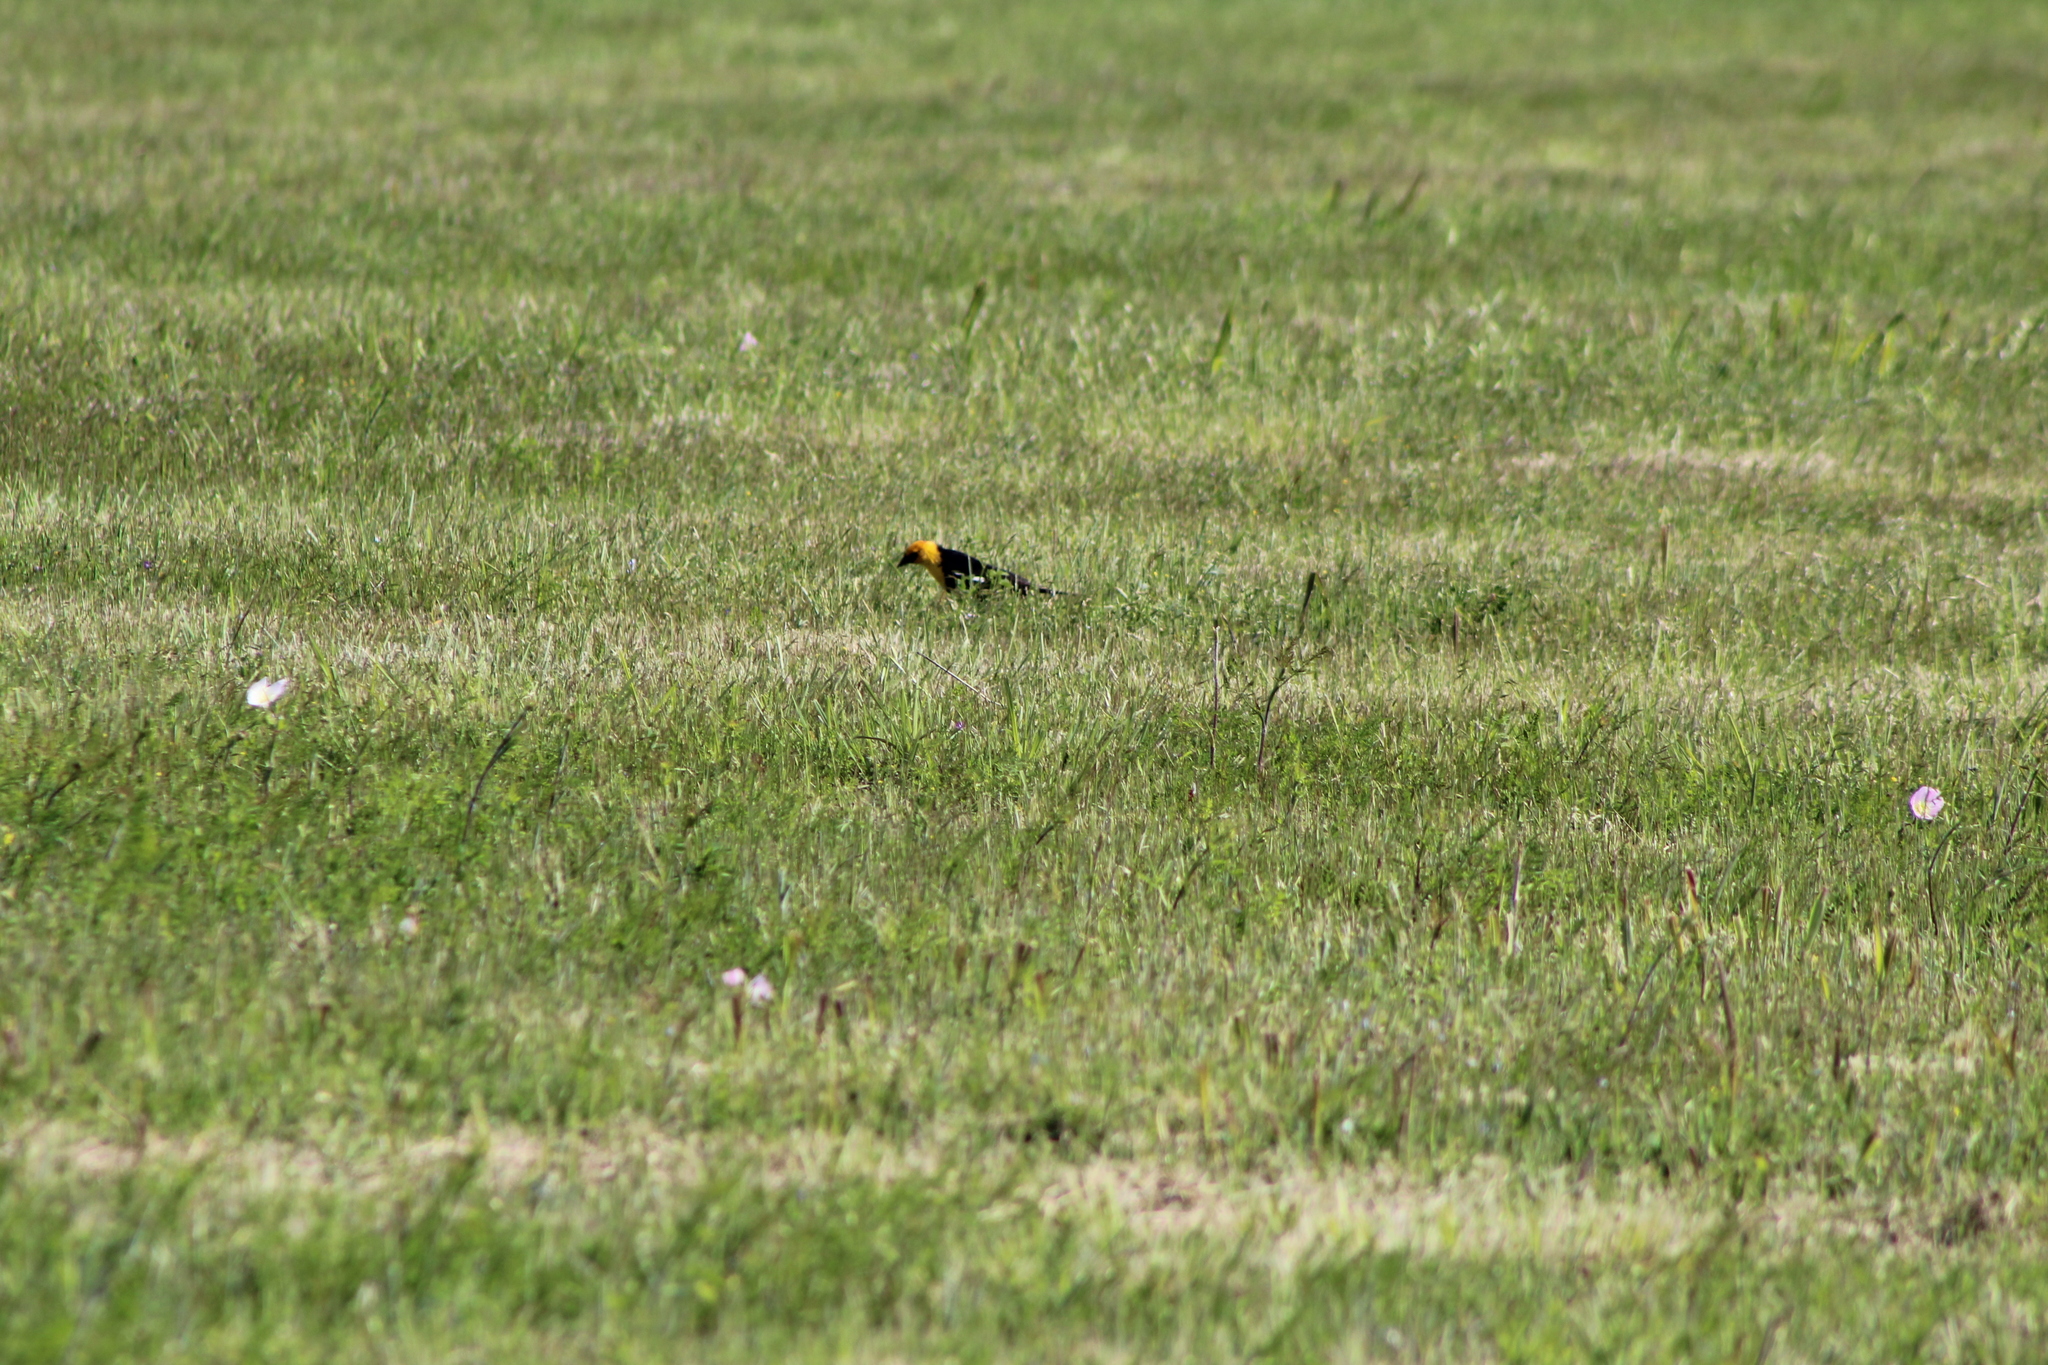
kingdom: Animalia
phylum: Chordata
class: Aves
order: Passeriformes
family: Icteridae
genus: Xanthocephalus
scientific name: Xanthocephalus xanthocephalus
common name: Yellow-headed blackbird
